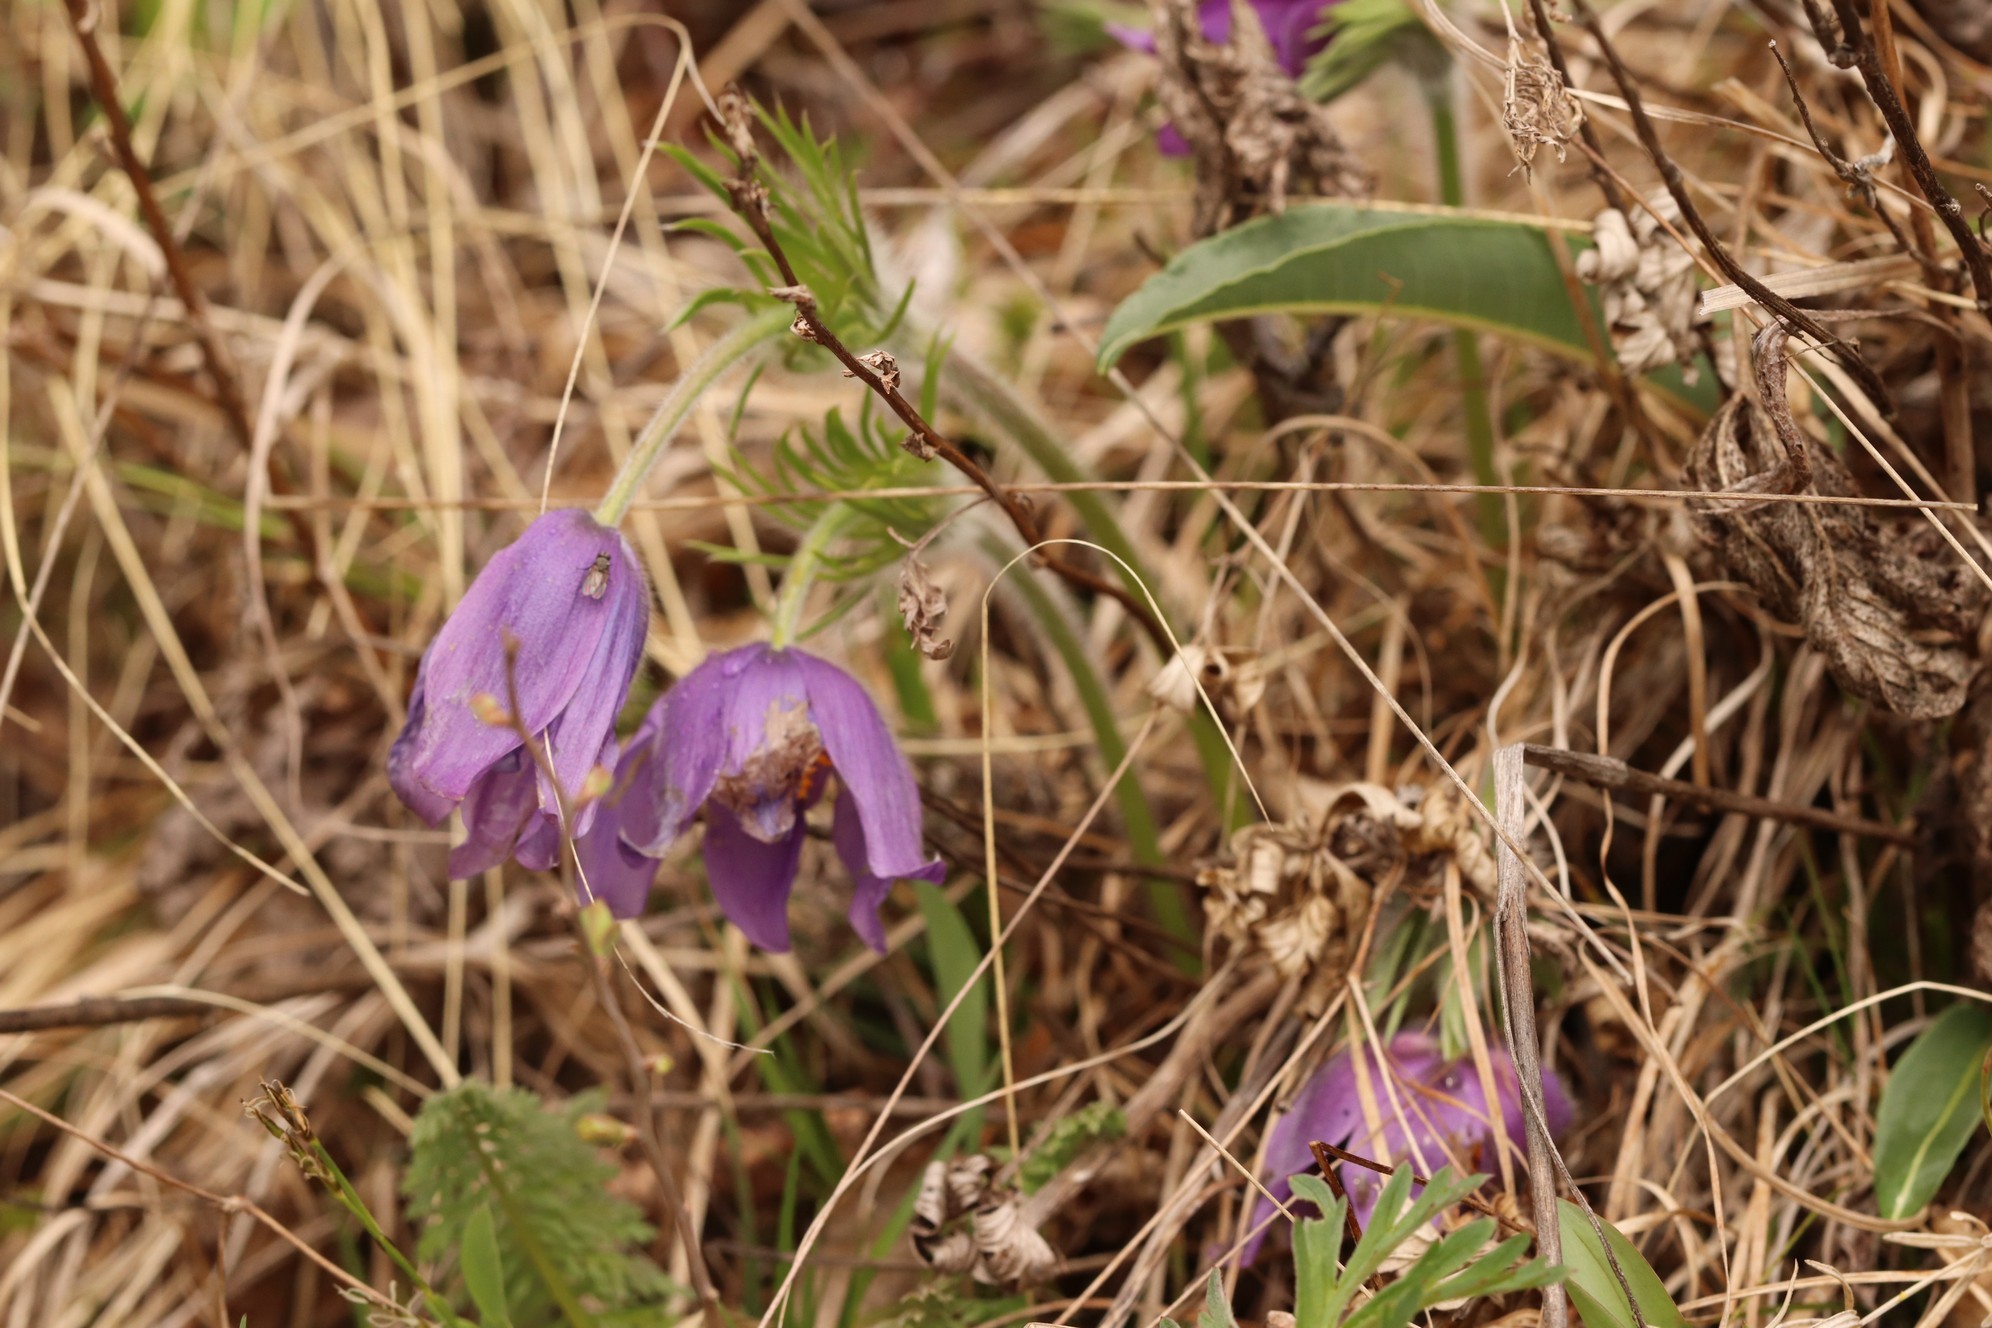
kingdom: Plantae
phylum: Tracheophyta
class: Magnoliopsida
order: Ranunculales
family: Ranunculaceae
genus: Pulsatilla
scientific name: Pulsatilla patens
